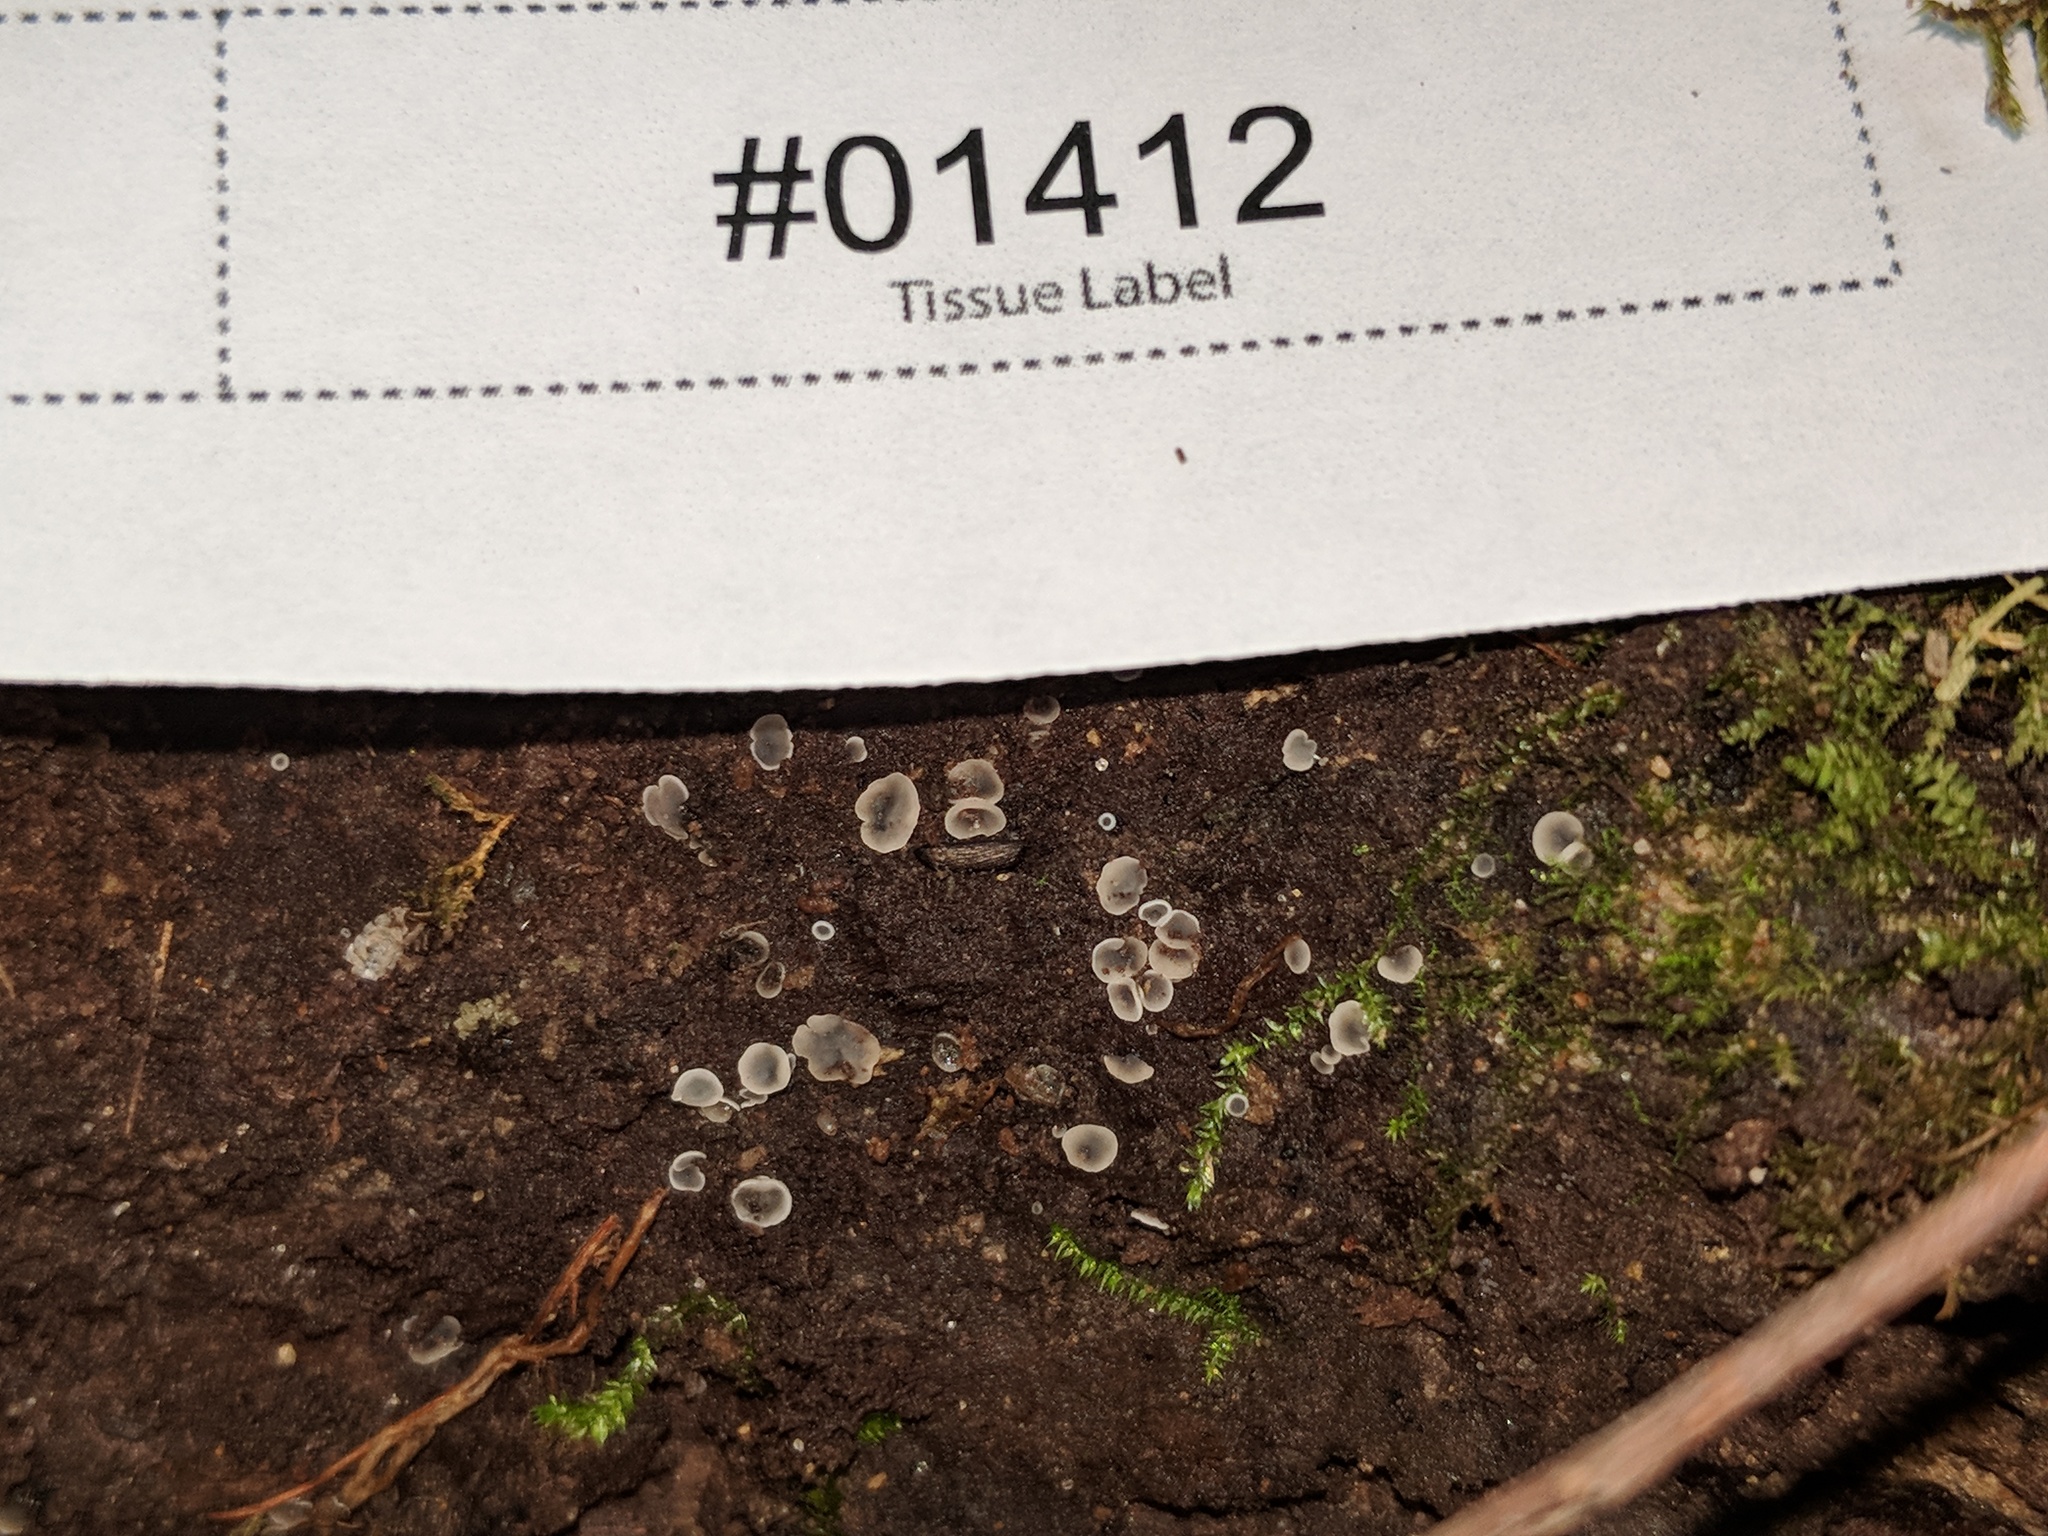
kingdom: Fungi
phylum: Ascomycota
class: Leotiomycetes
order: Helotiales
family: Mollisiaceae
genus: Phialocephala
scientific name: Phialocephala aylmerensis
